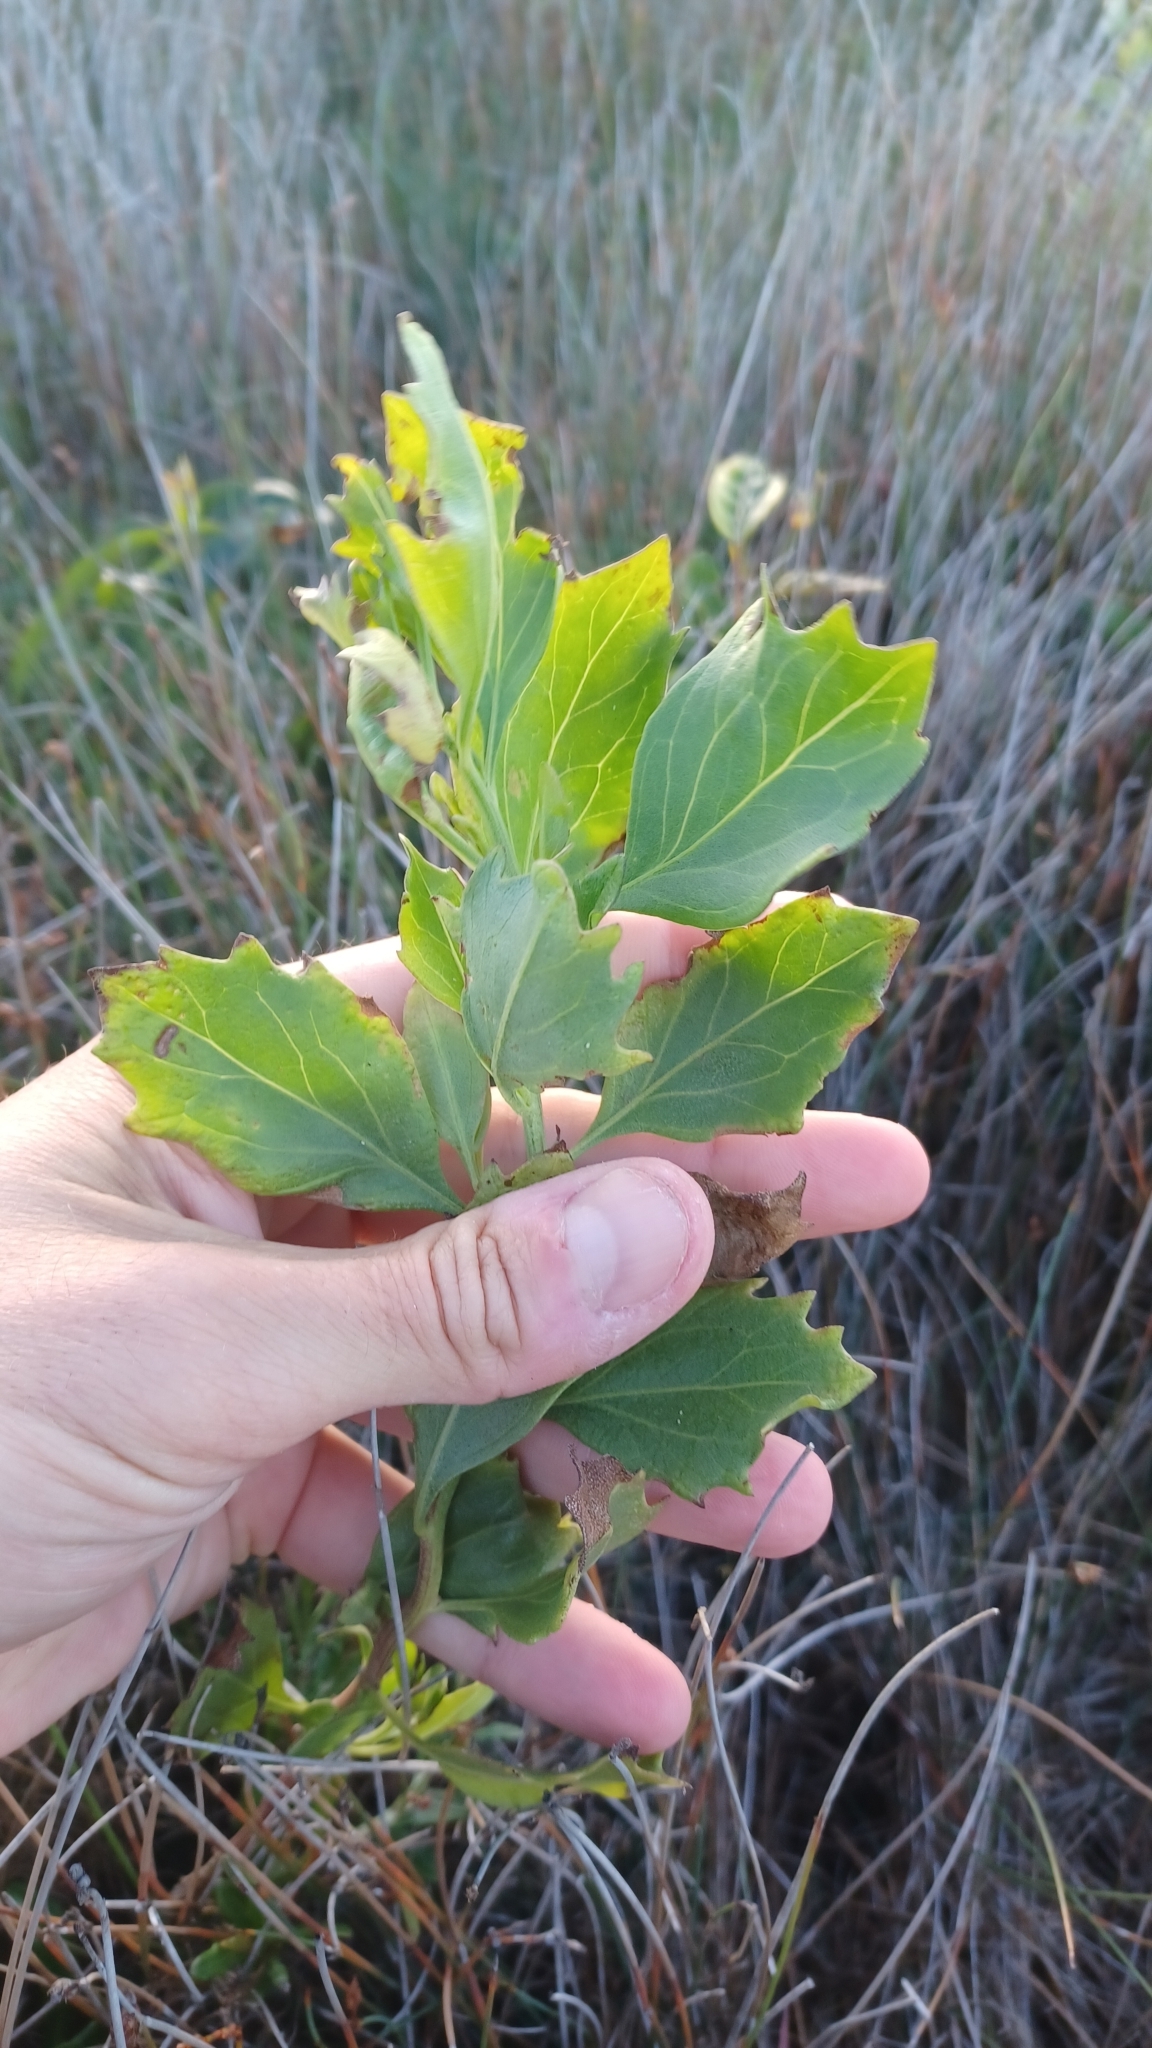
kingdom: Plantae
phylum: Tracheophyta
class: Magnoliopsida
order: Asterales
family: Asteraceae
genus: Baccharis
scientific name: Baccharis halimifolia
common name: Eastern baccharis
